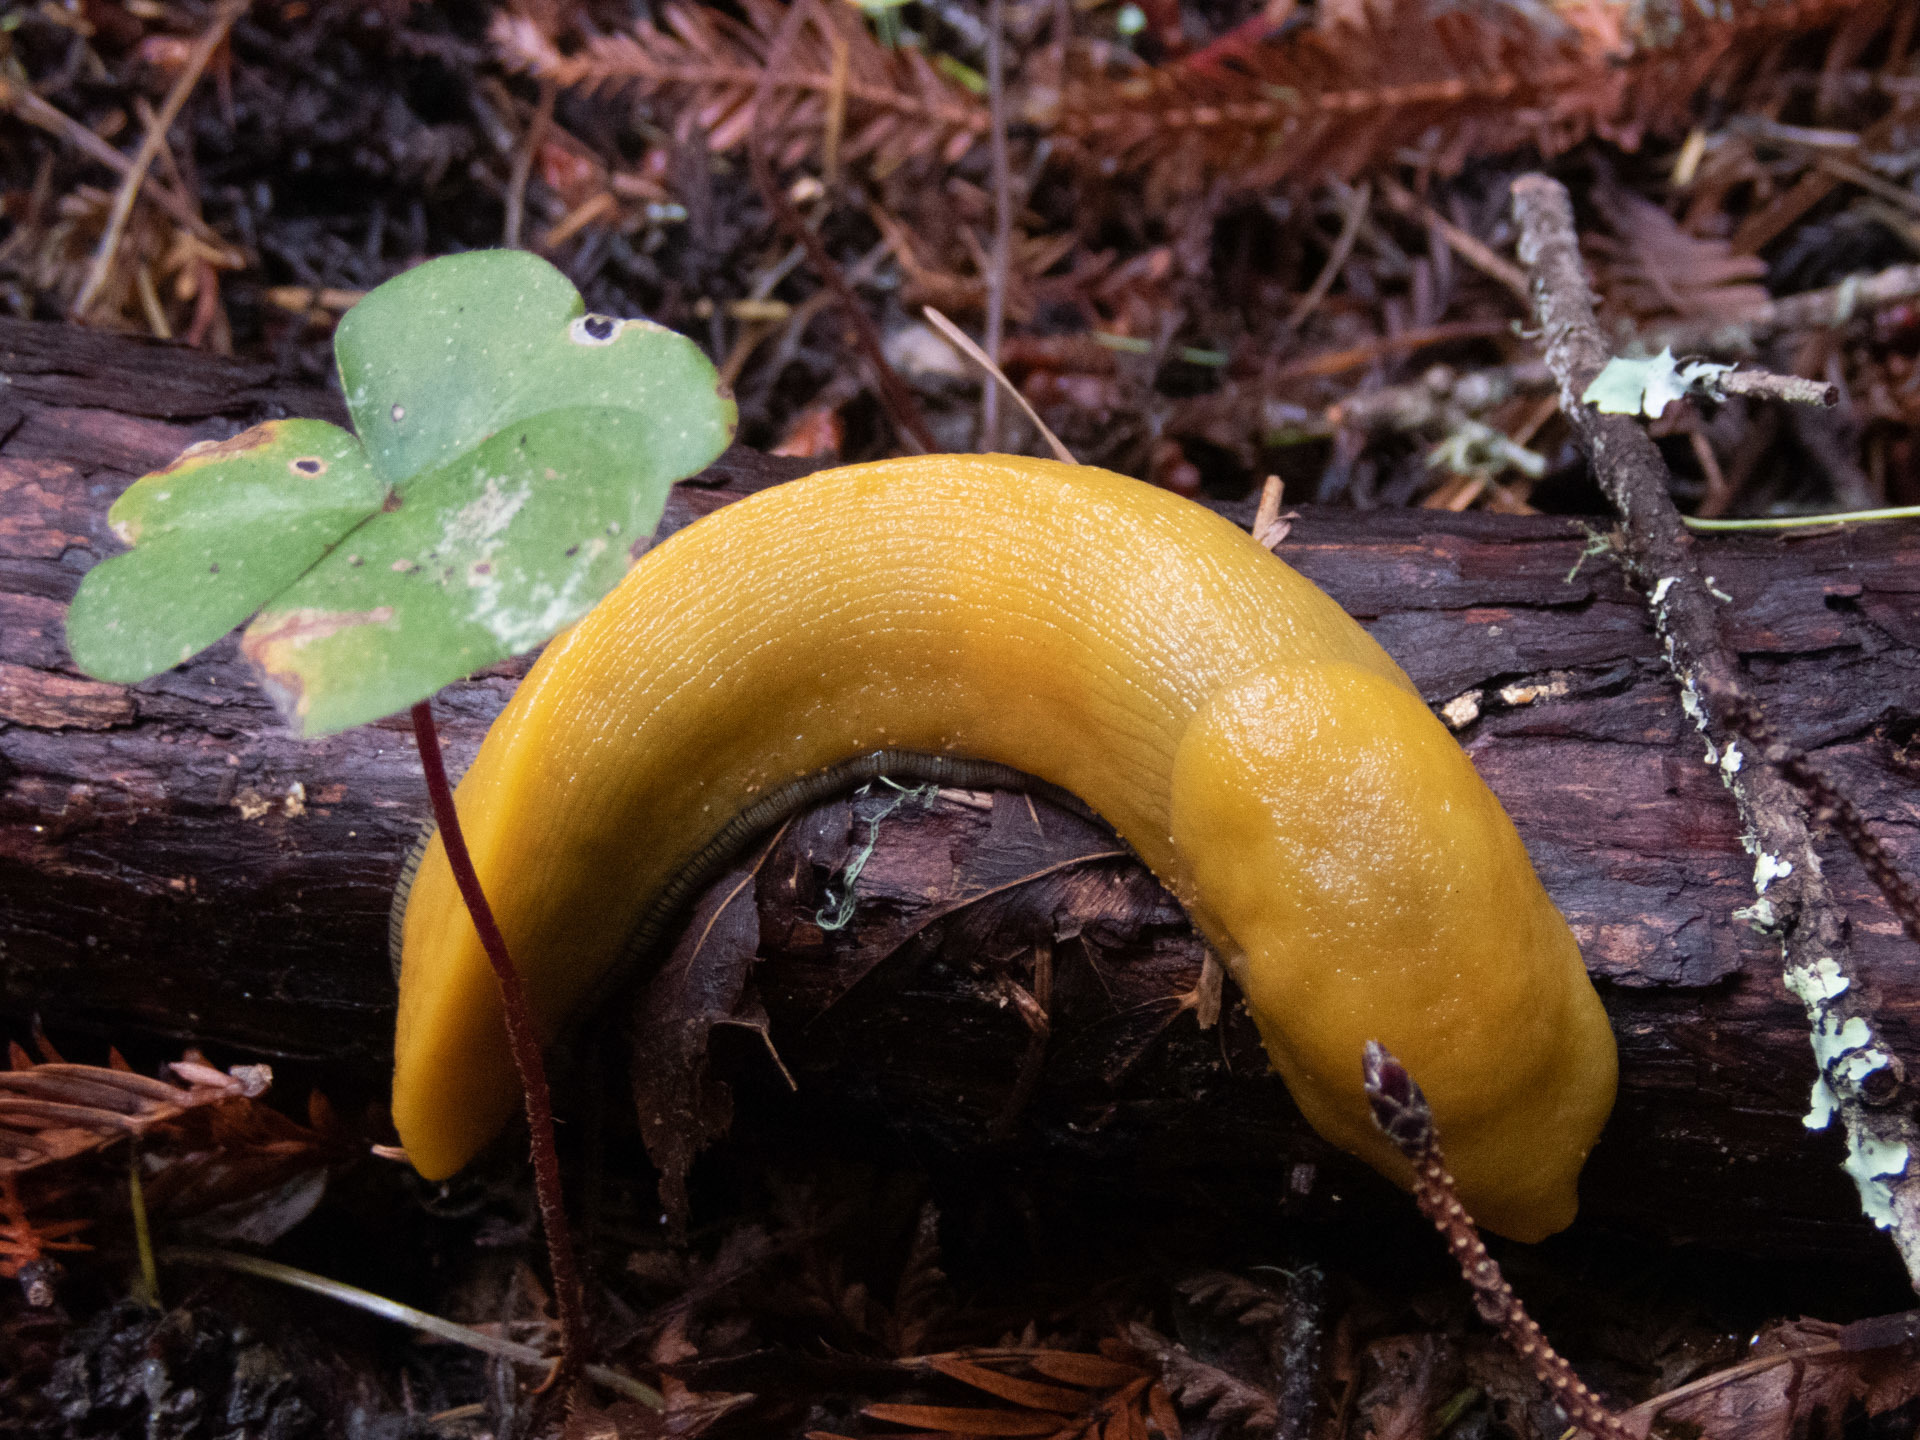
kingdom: Animalia
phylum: Mollusca
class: Gastropoda
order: Stylommatophora
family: Ariolimacidae
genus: Ariolimax
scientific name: Ariolimax dolichophallus
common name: Slender banana slug
